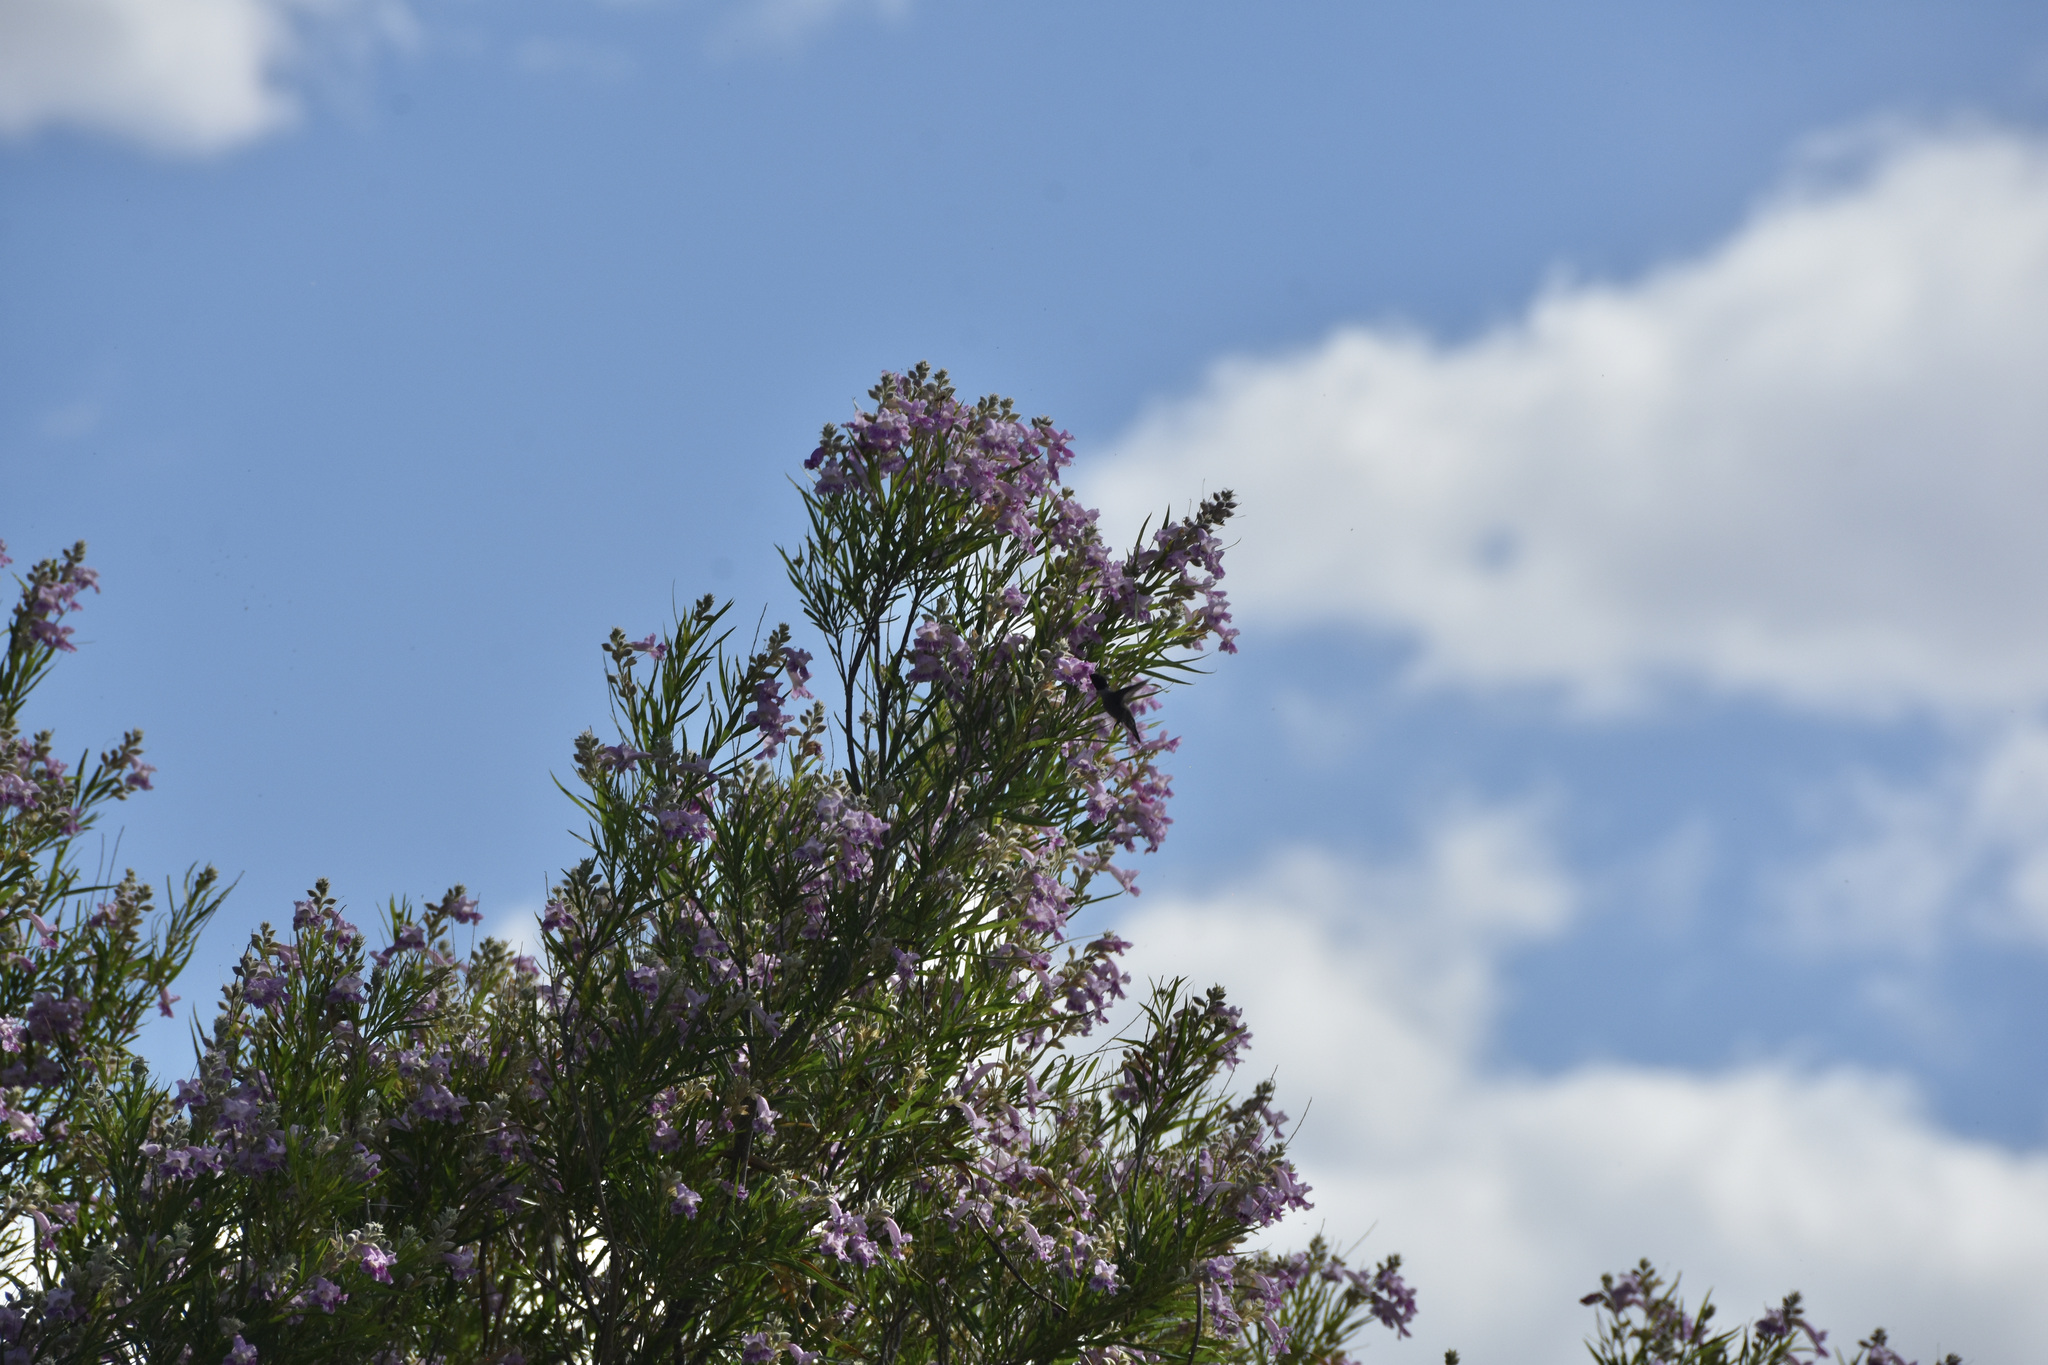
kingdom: Animalia
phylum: Chordata
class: Aves
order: Apodiformes
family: Trochilidae
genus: Archilochus
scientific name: Archilochus alexandri
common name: Black-chinned hummingbird
